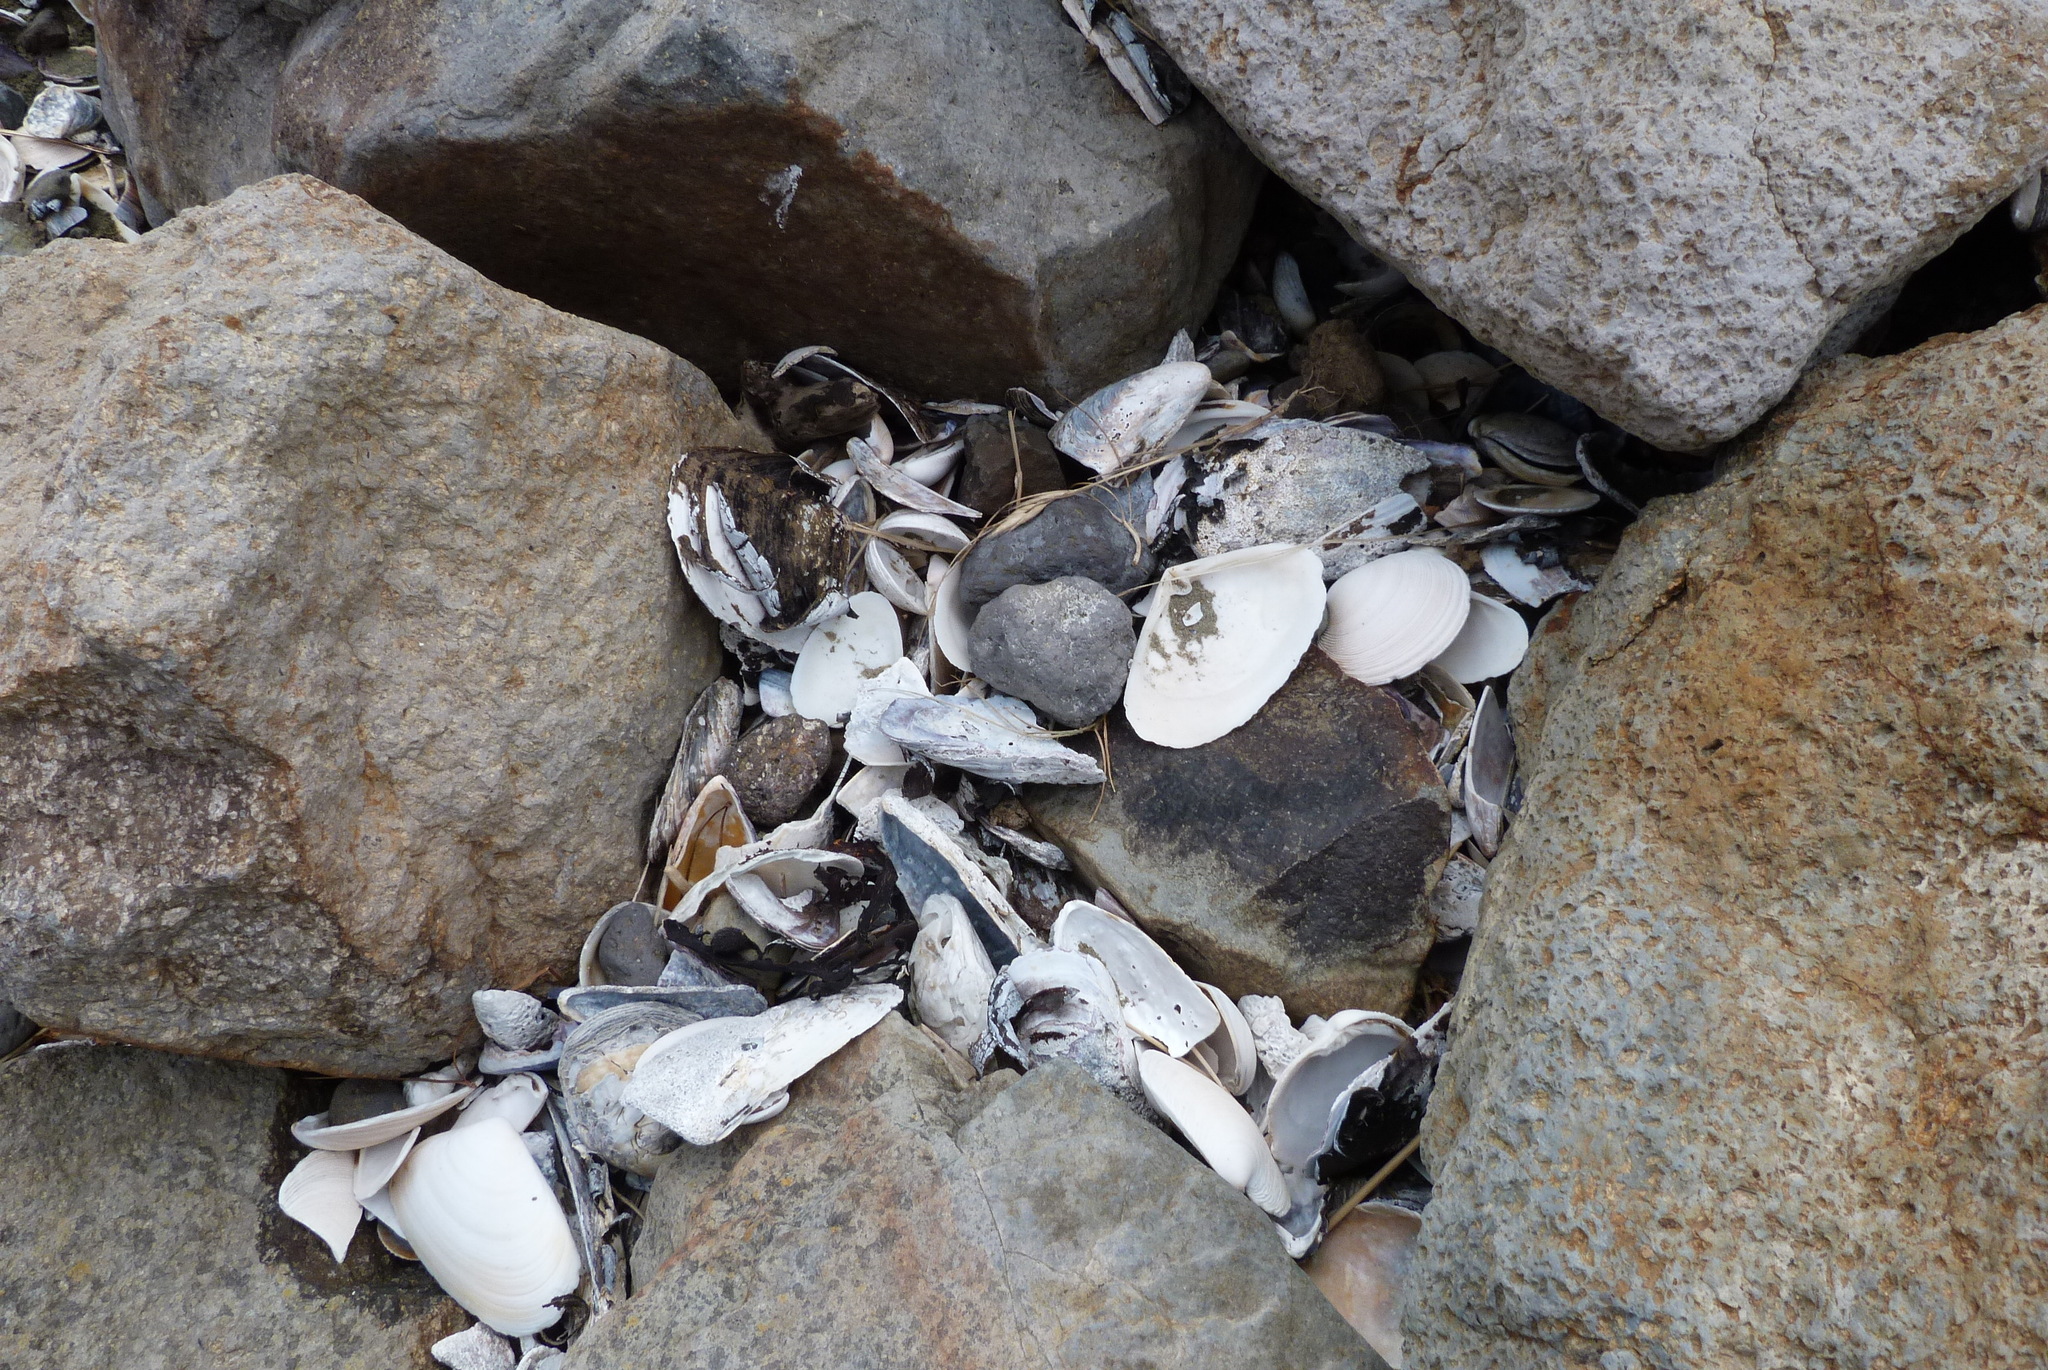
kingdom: Animalia
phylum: Mollusca
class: Bivalvia
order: Venerida
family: Mesodesmatidae
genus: Paphies
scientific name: Paphies australis
